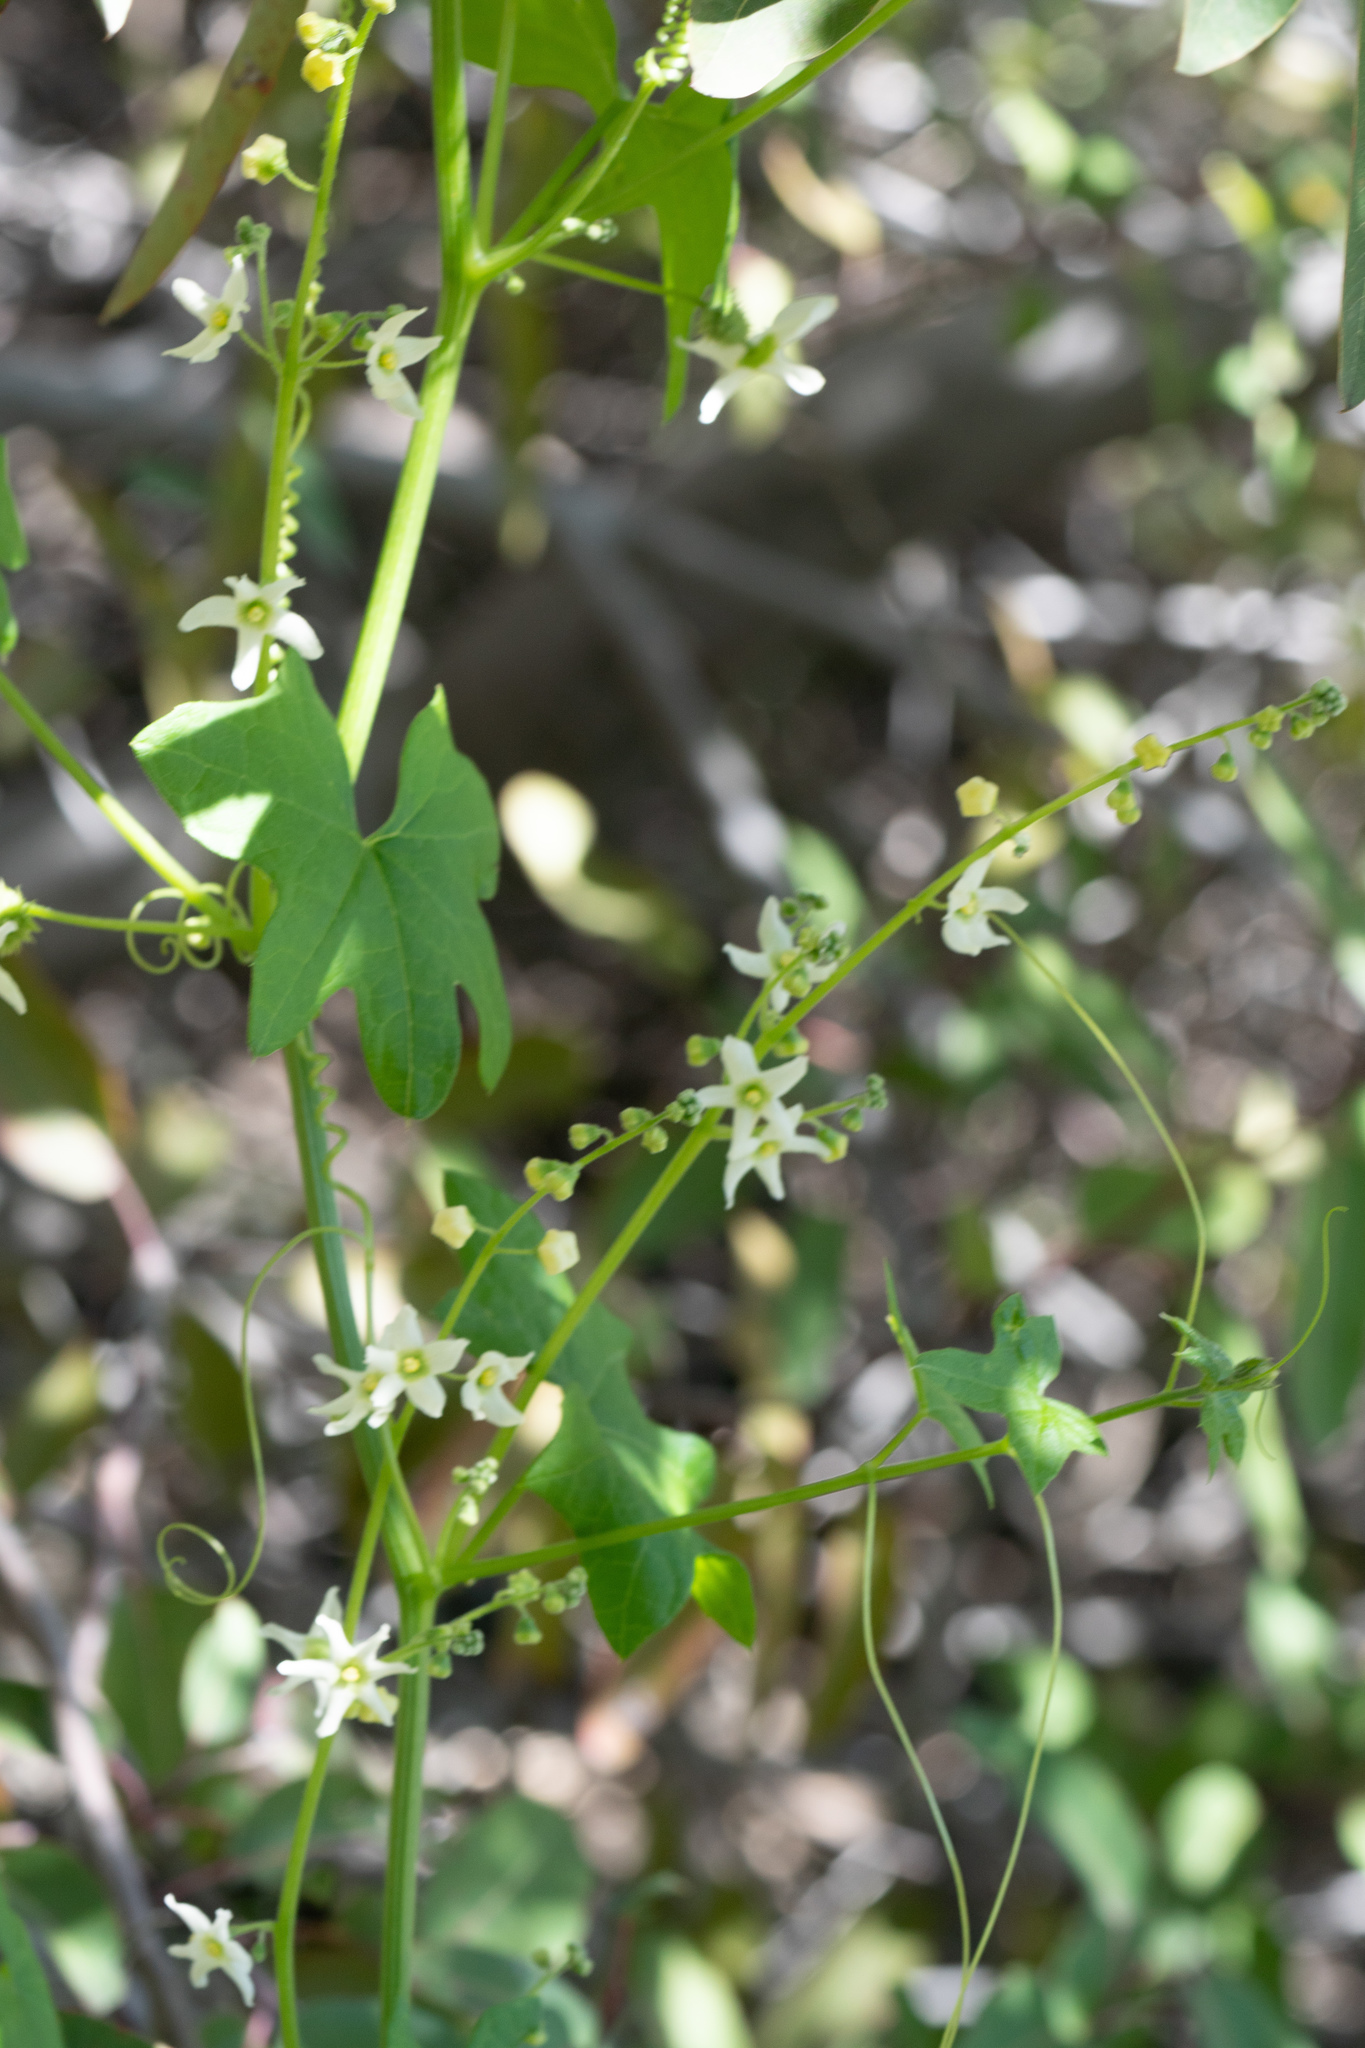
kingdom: Plantae
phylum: Tracheophyta
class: Magnoliopsida
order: Cucurbitales
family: Cucurbitaceae
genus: Marah
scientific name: Marah macrocarpa
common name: Cucamonga manroot
